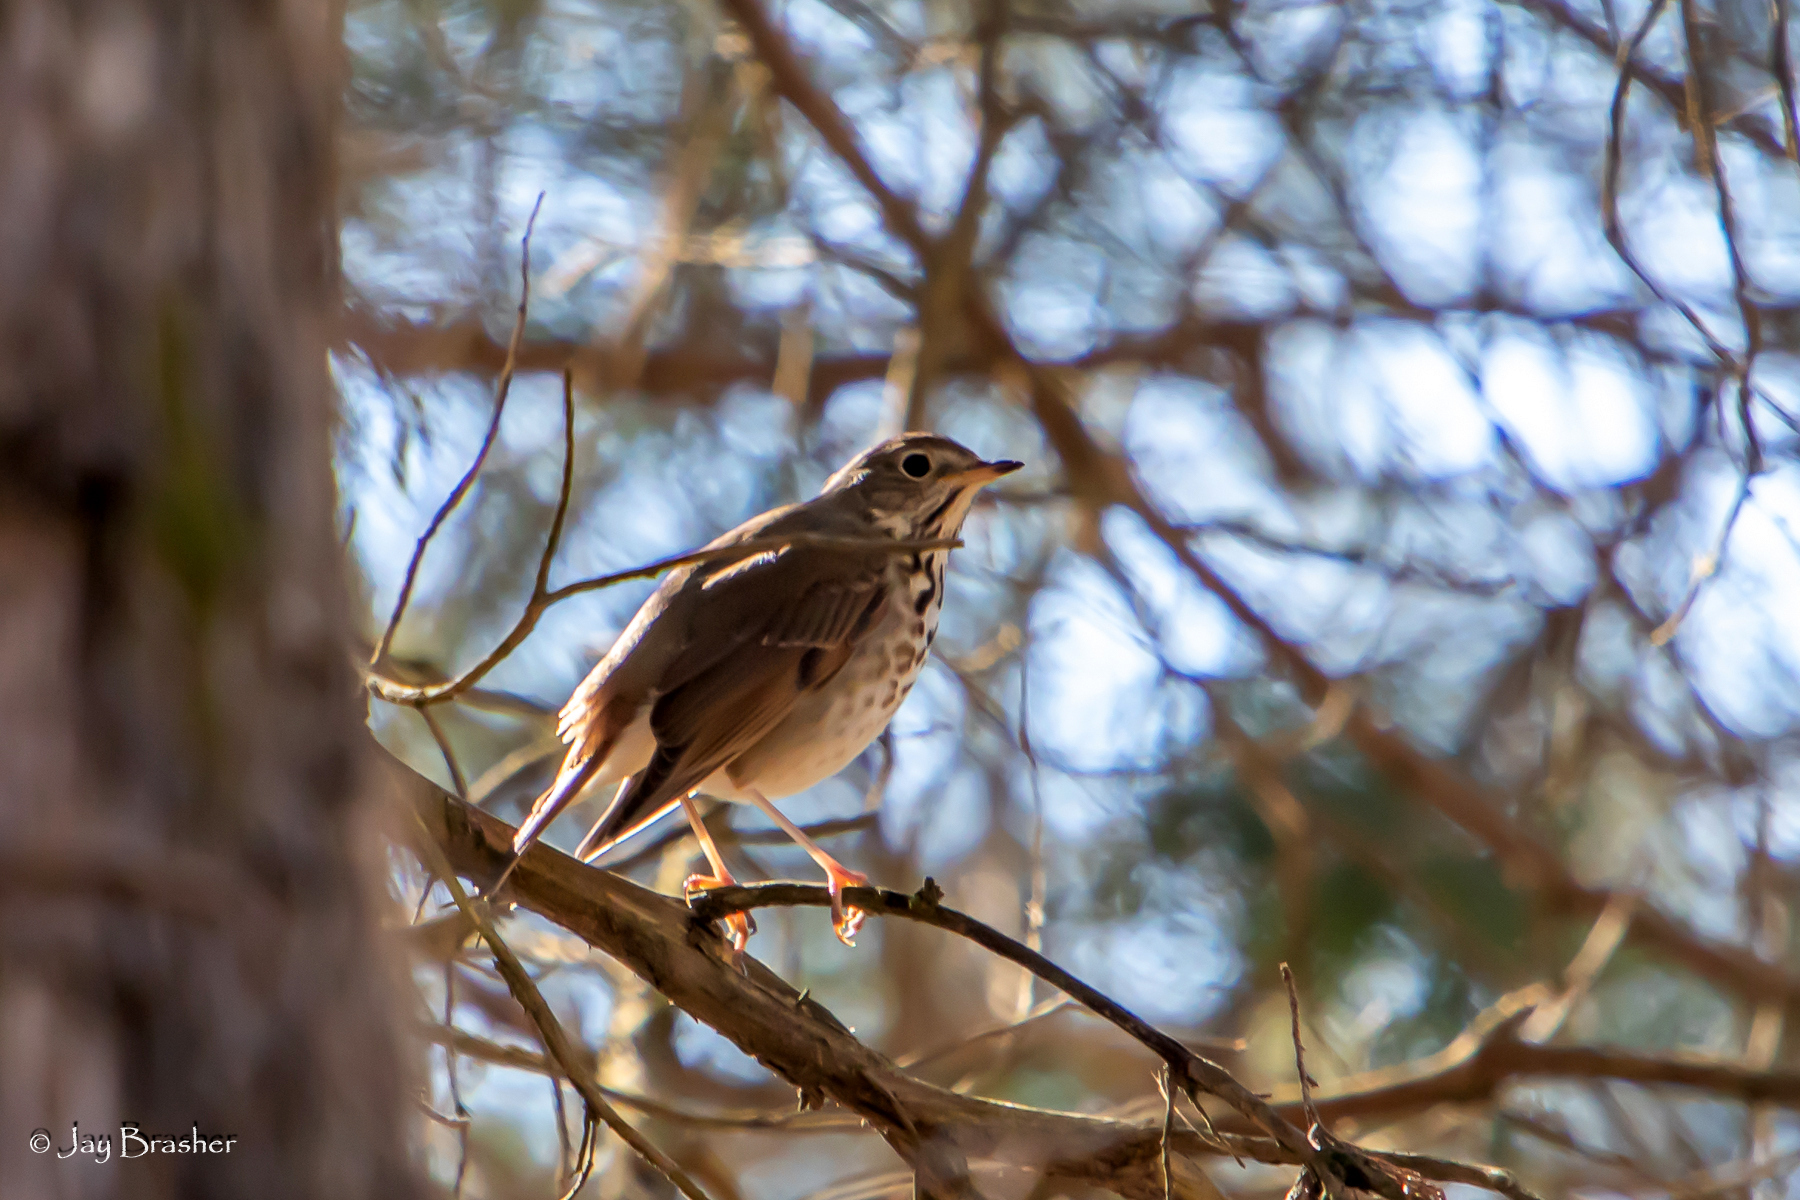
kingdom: Animalia
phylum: Chordata
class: Aves
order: Passeriformes
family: Turdidae
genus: Catharus
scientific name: Catharus guttatus
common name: Hermit thrush
